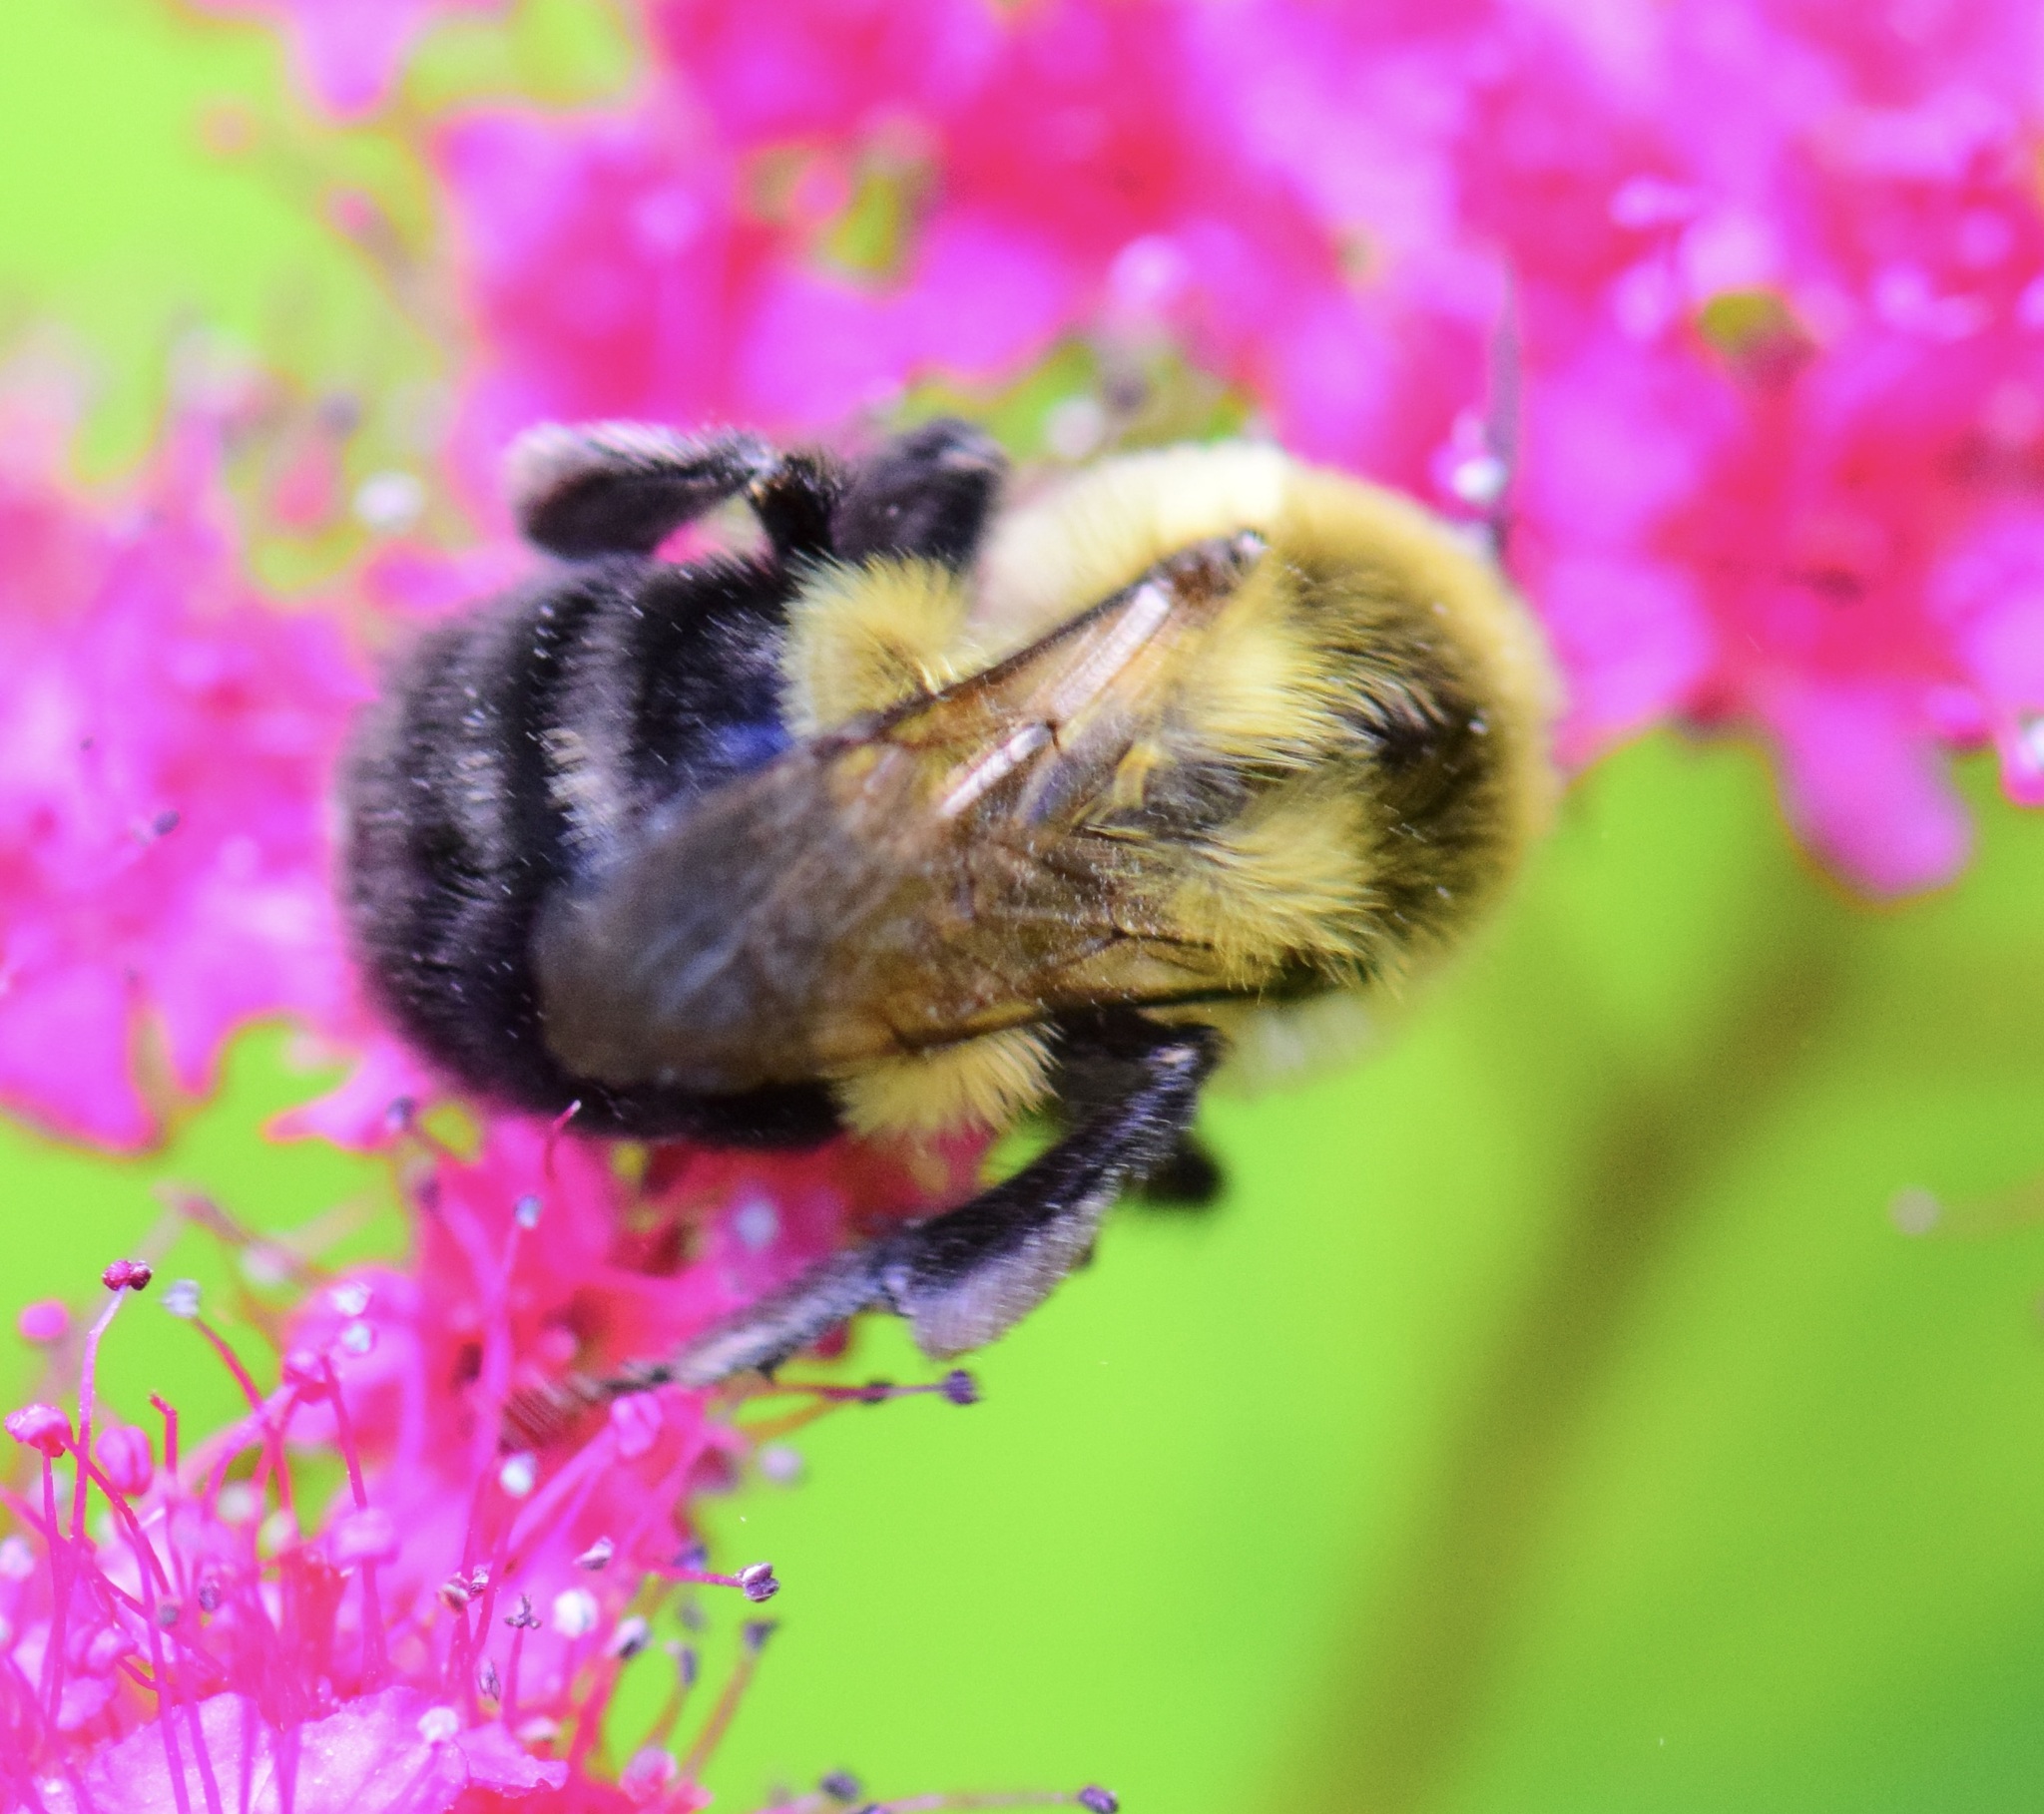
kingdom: Animalia
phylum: Arthropoda
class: Insecta
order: Hymenoptera
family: Apidae
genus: Bombus
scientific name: Bombus impatiens
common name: Common eastern bumble bee
